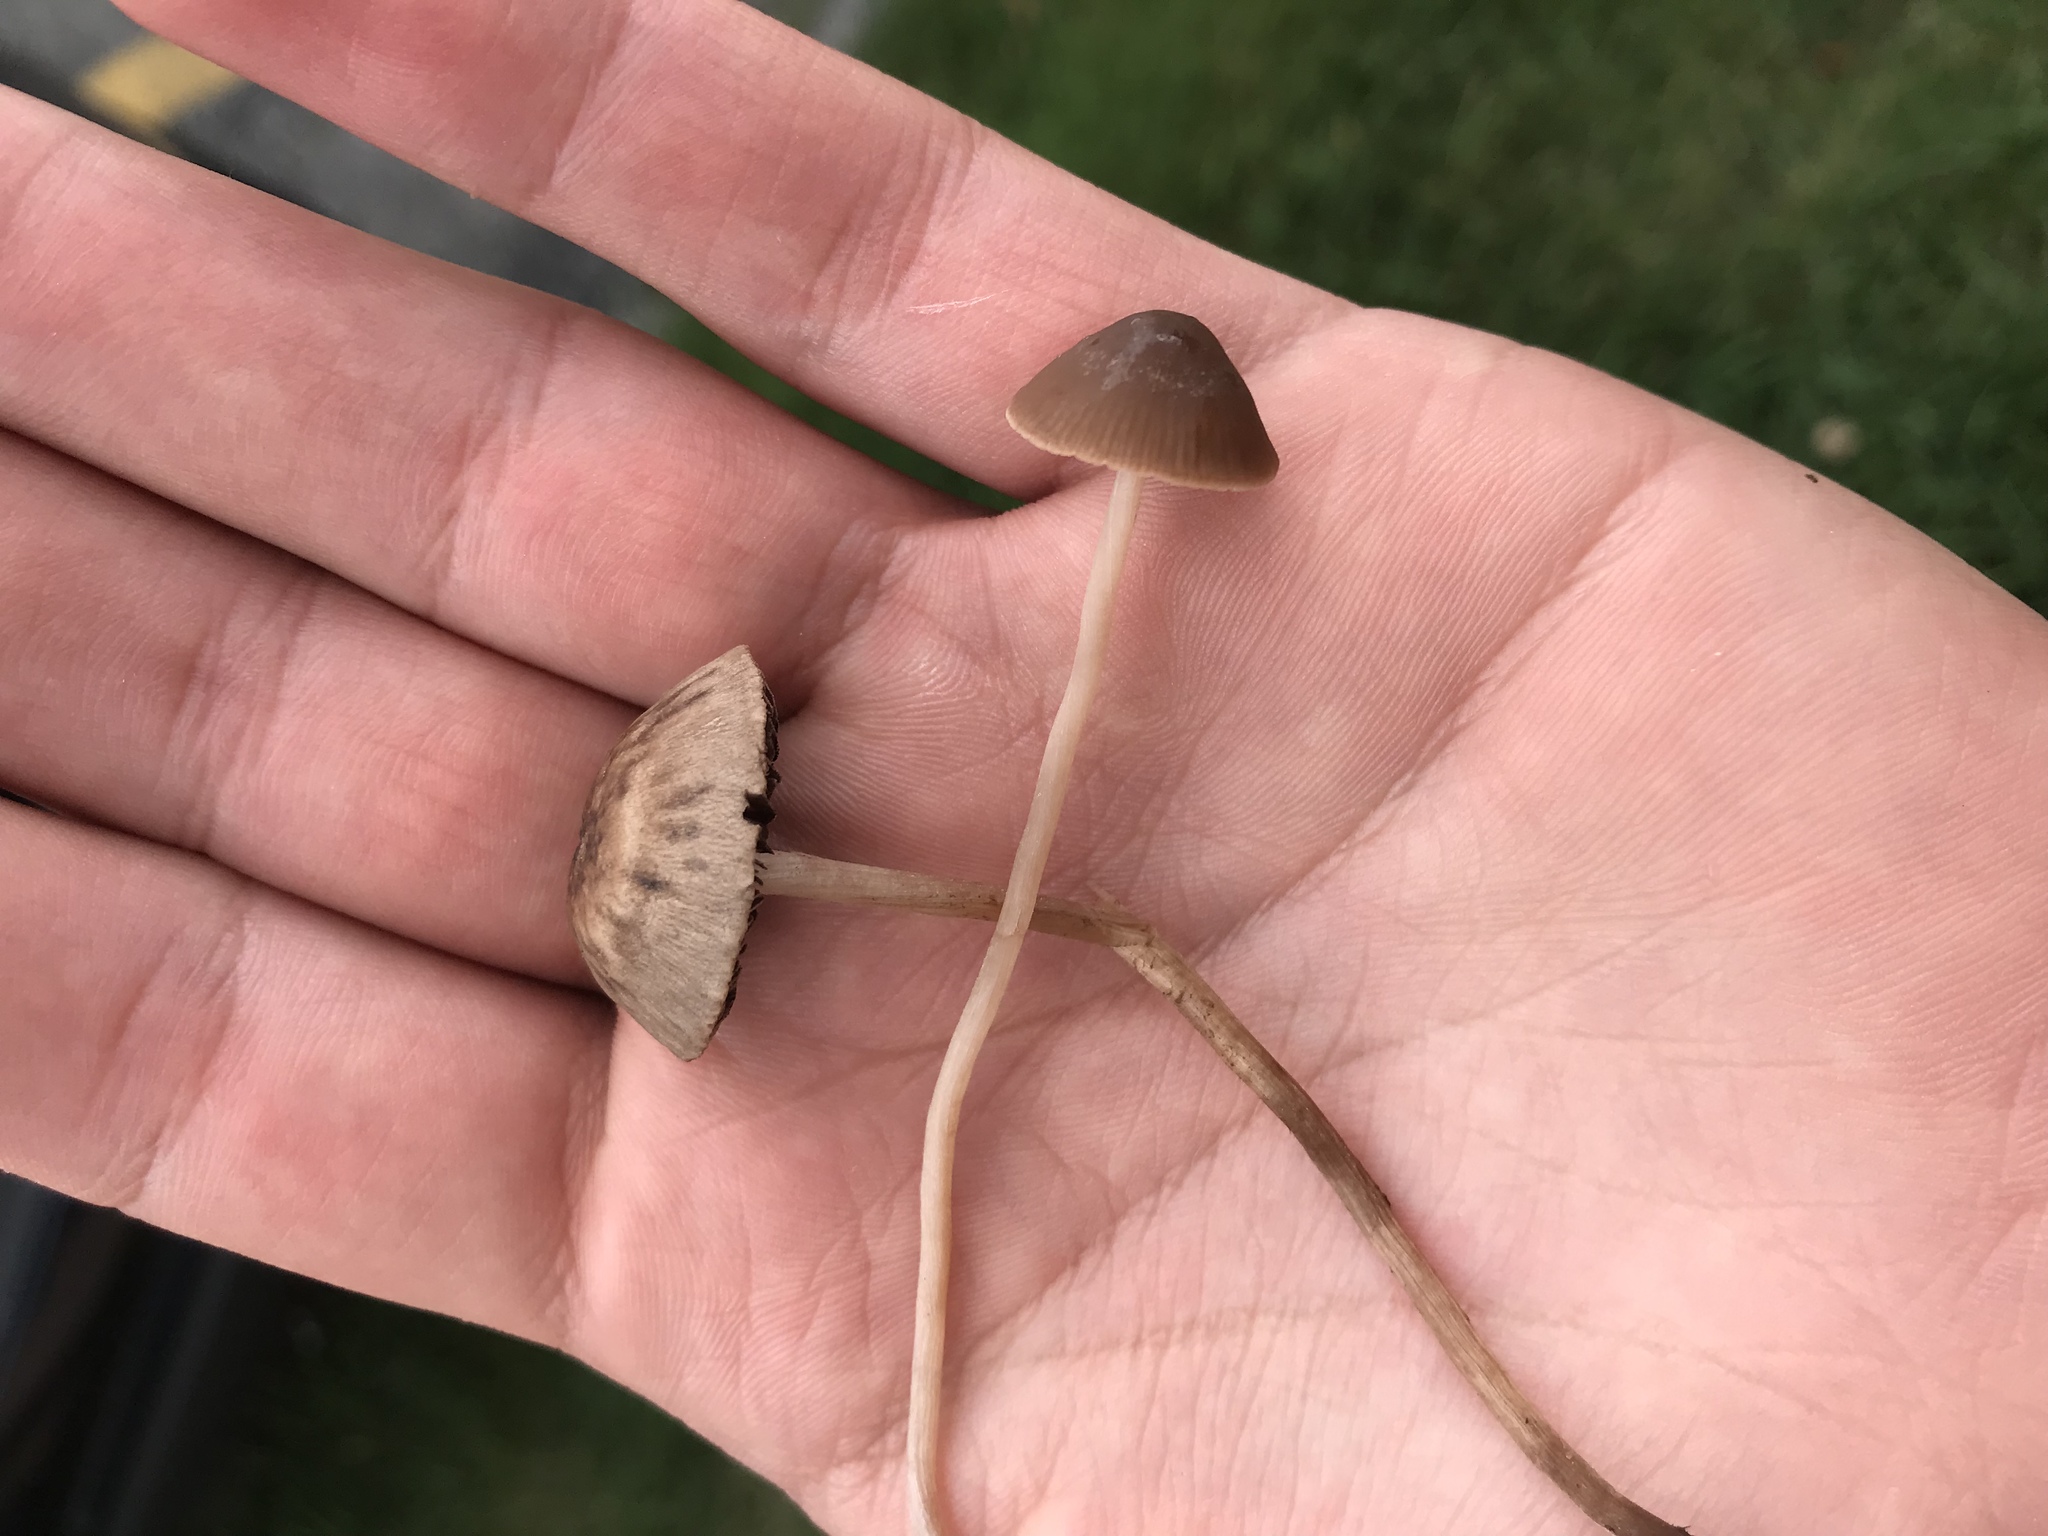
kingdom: Fungi
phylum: Basidiomycota
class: Agaricomycetes
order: Agaricales
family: Bolbitiaceae
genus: Panaeolina
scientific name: Panaeolina foenisecii
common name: Brown hay cap
